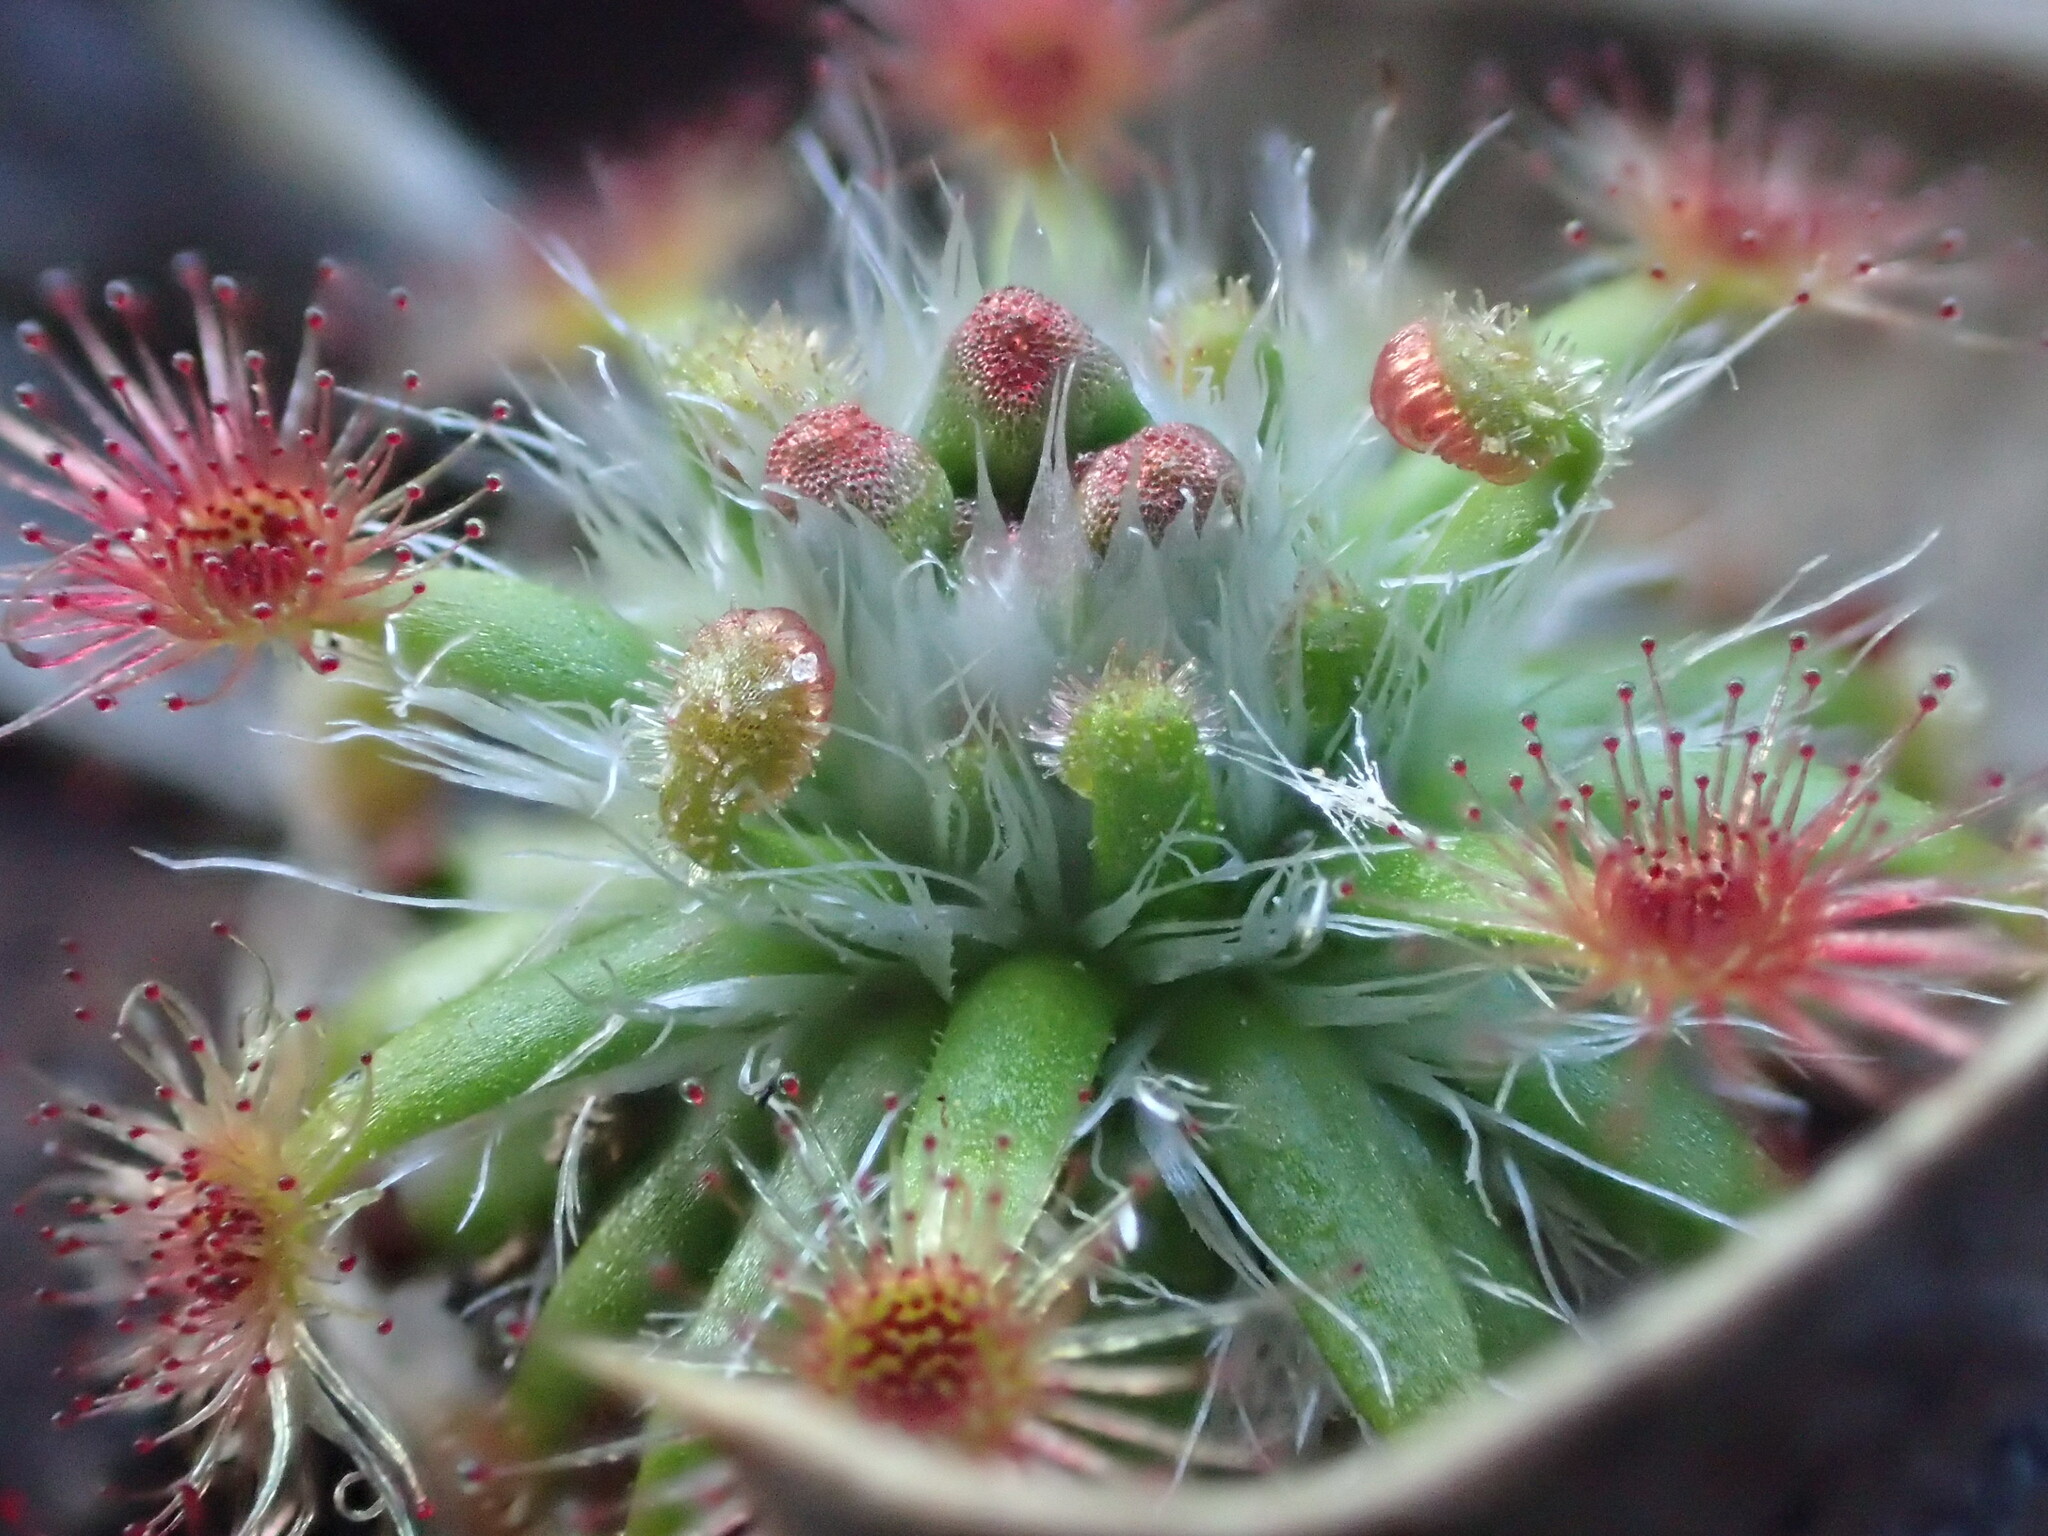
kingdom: Plantae
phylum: Tracheophyta
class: Magnoliopsida
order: Caryophyllales
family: Droseraceae
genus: Drosera
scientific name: Drosera sewelliae
